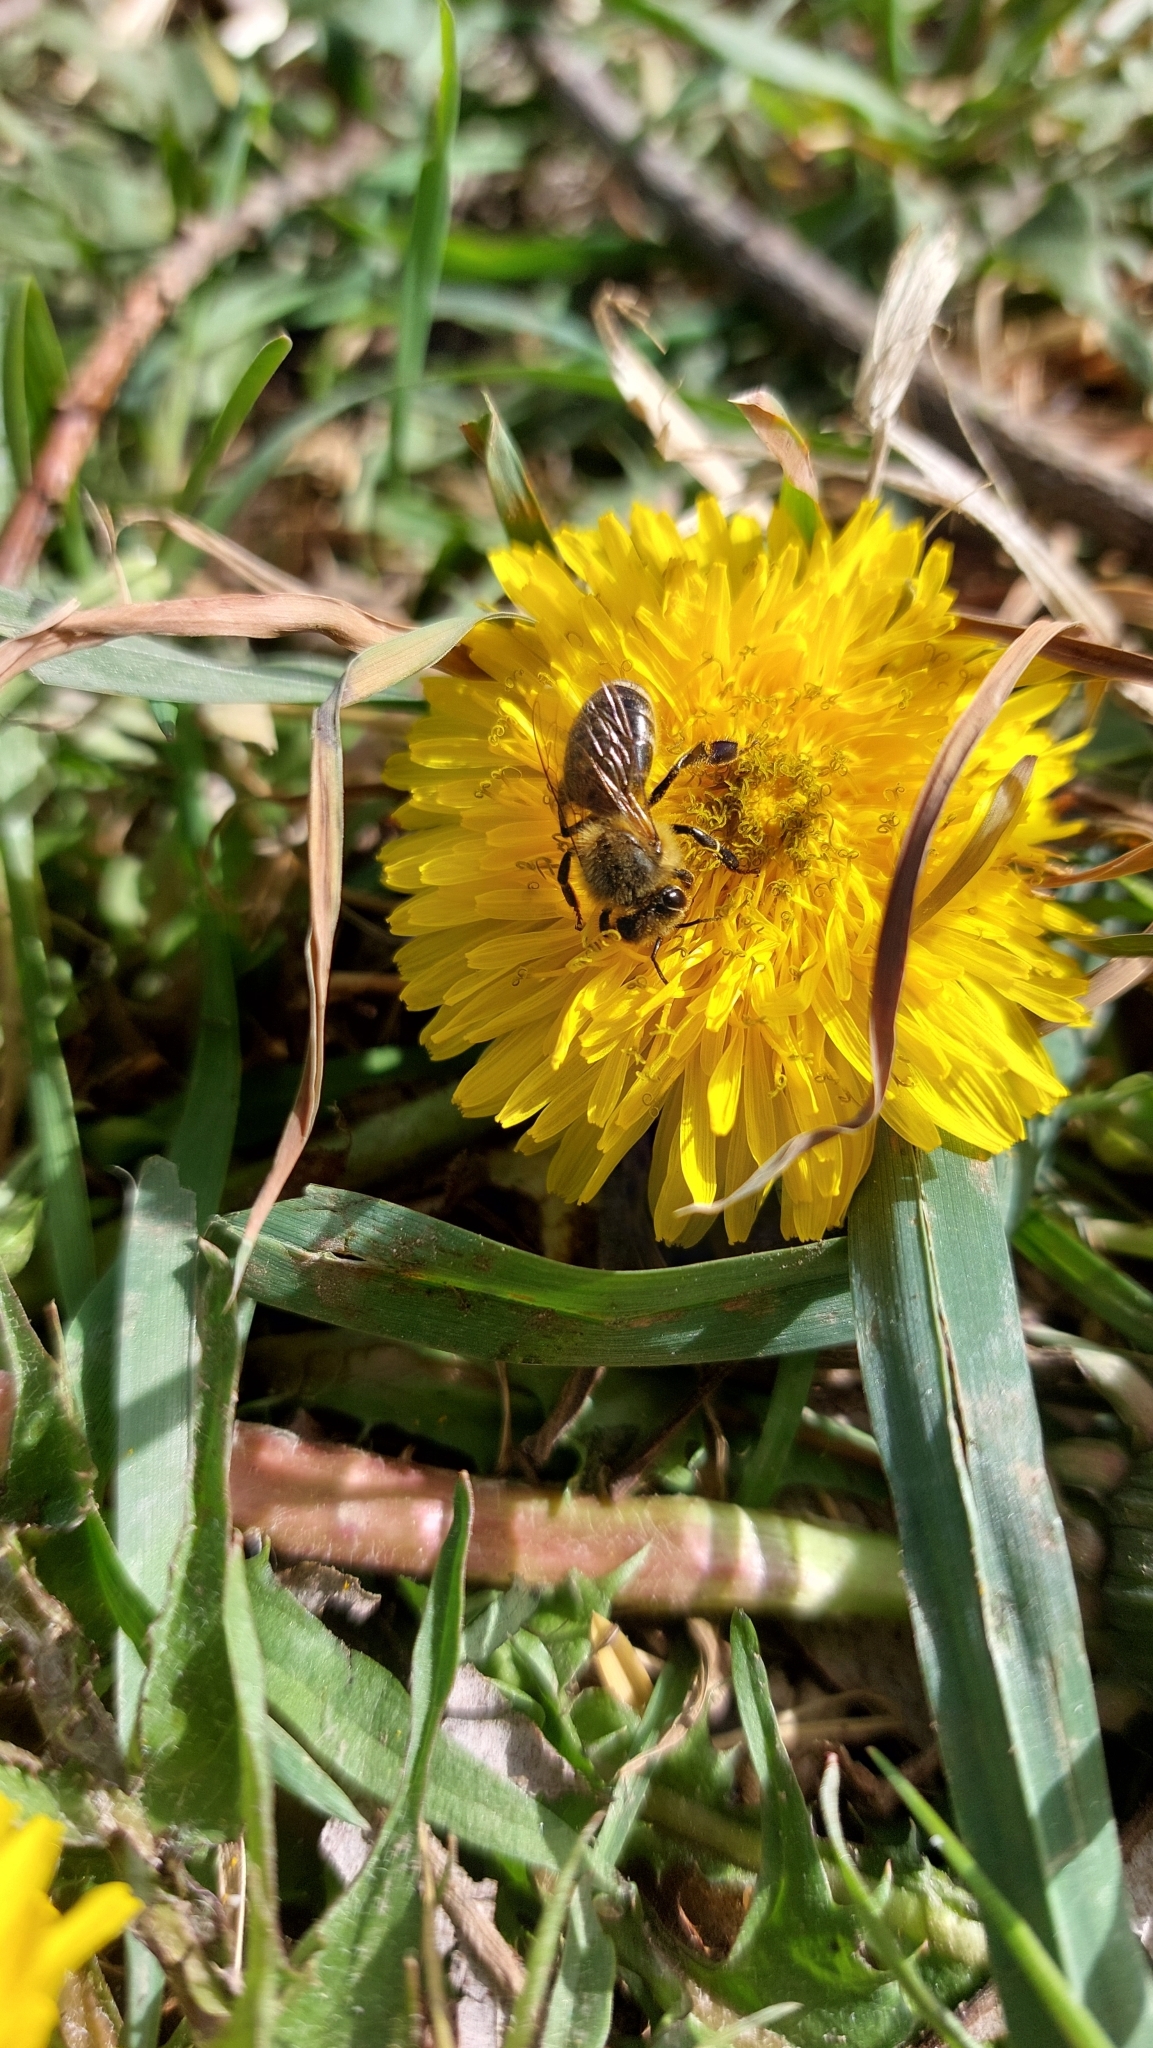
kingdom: Animalia
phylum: Arthropoda
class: Insecta
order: Hymenoptera
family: Apidae
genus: Apis
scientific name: Apis mellifera
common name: Honey bee
